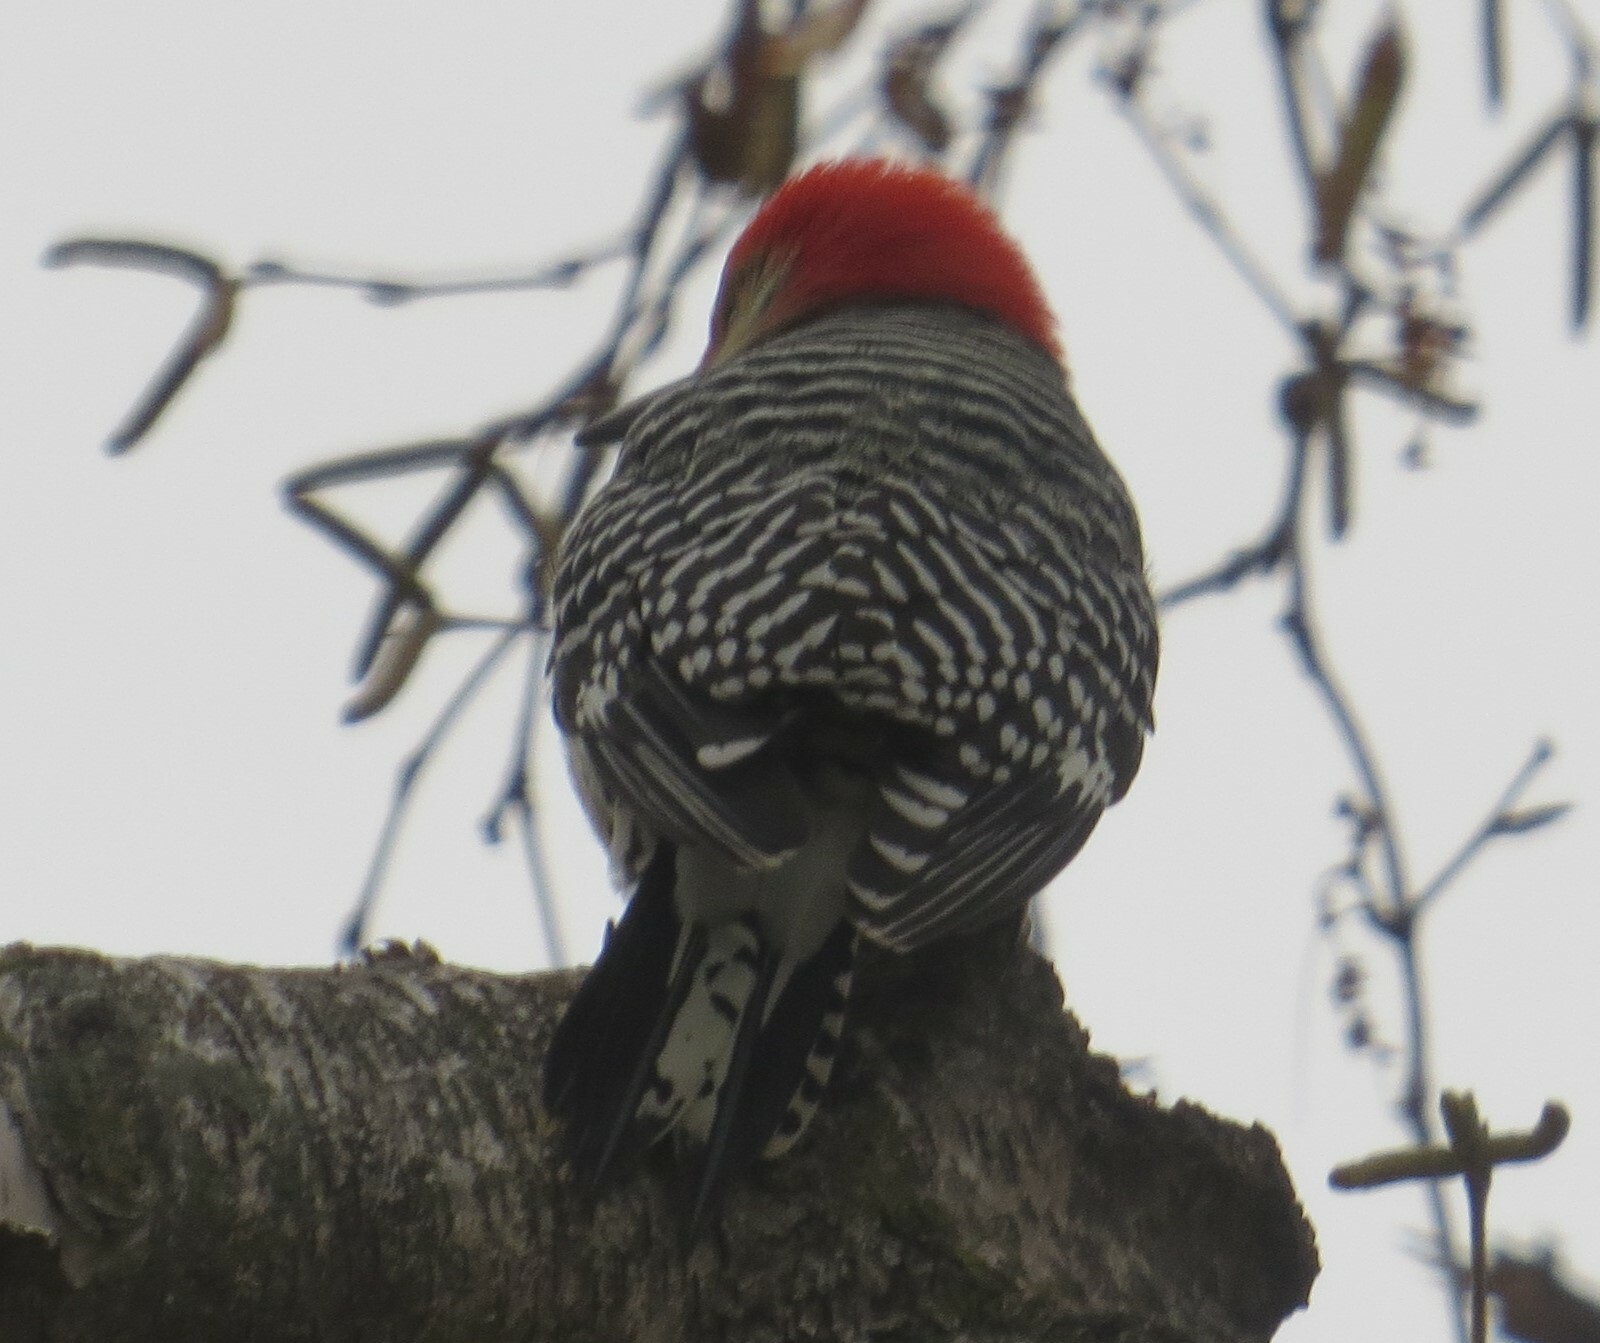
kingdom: Animalia
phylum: Chordata
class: Aves
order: Piciformes
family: Picidae
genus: Melanerpes
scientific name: Melanerpes carolinus
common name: Red-bellied woodpecker
